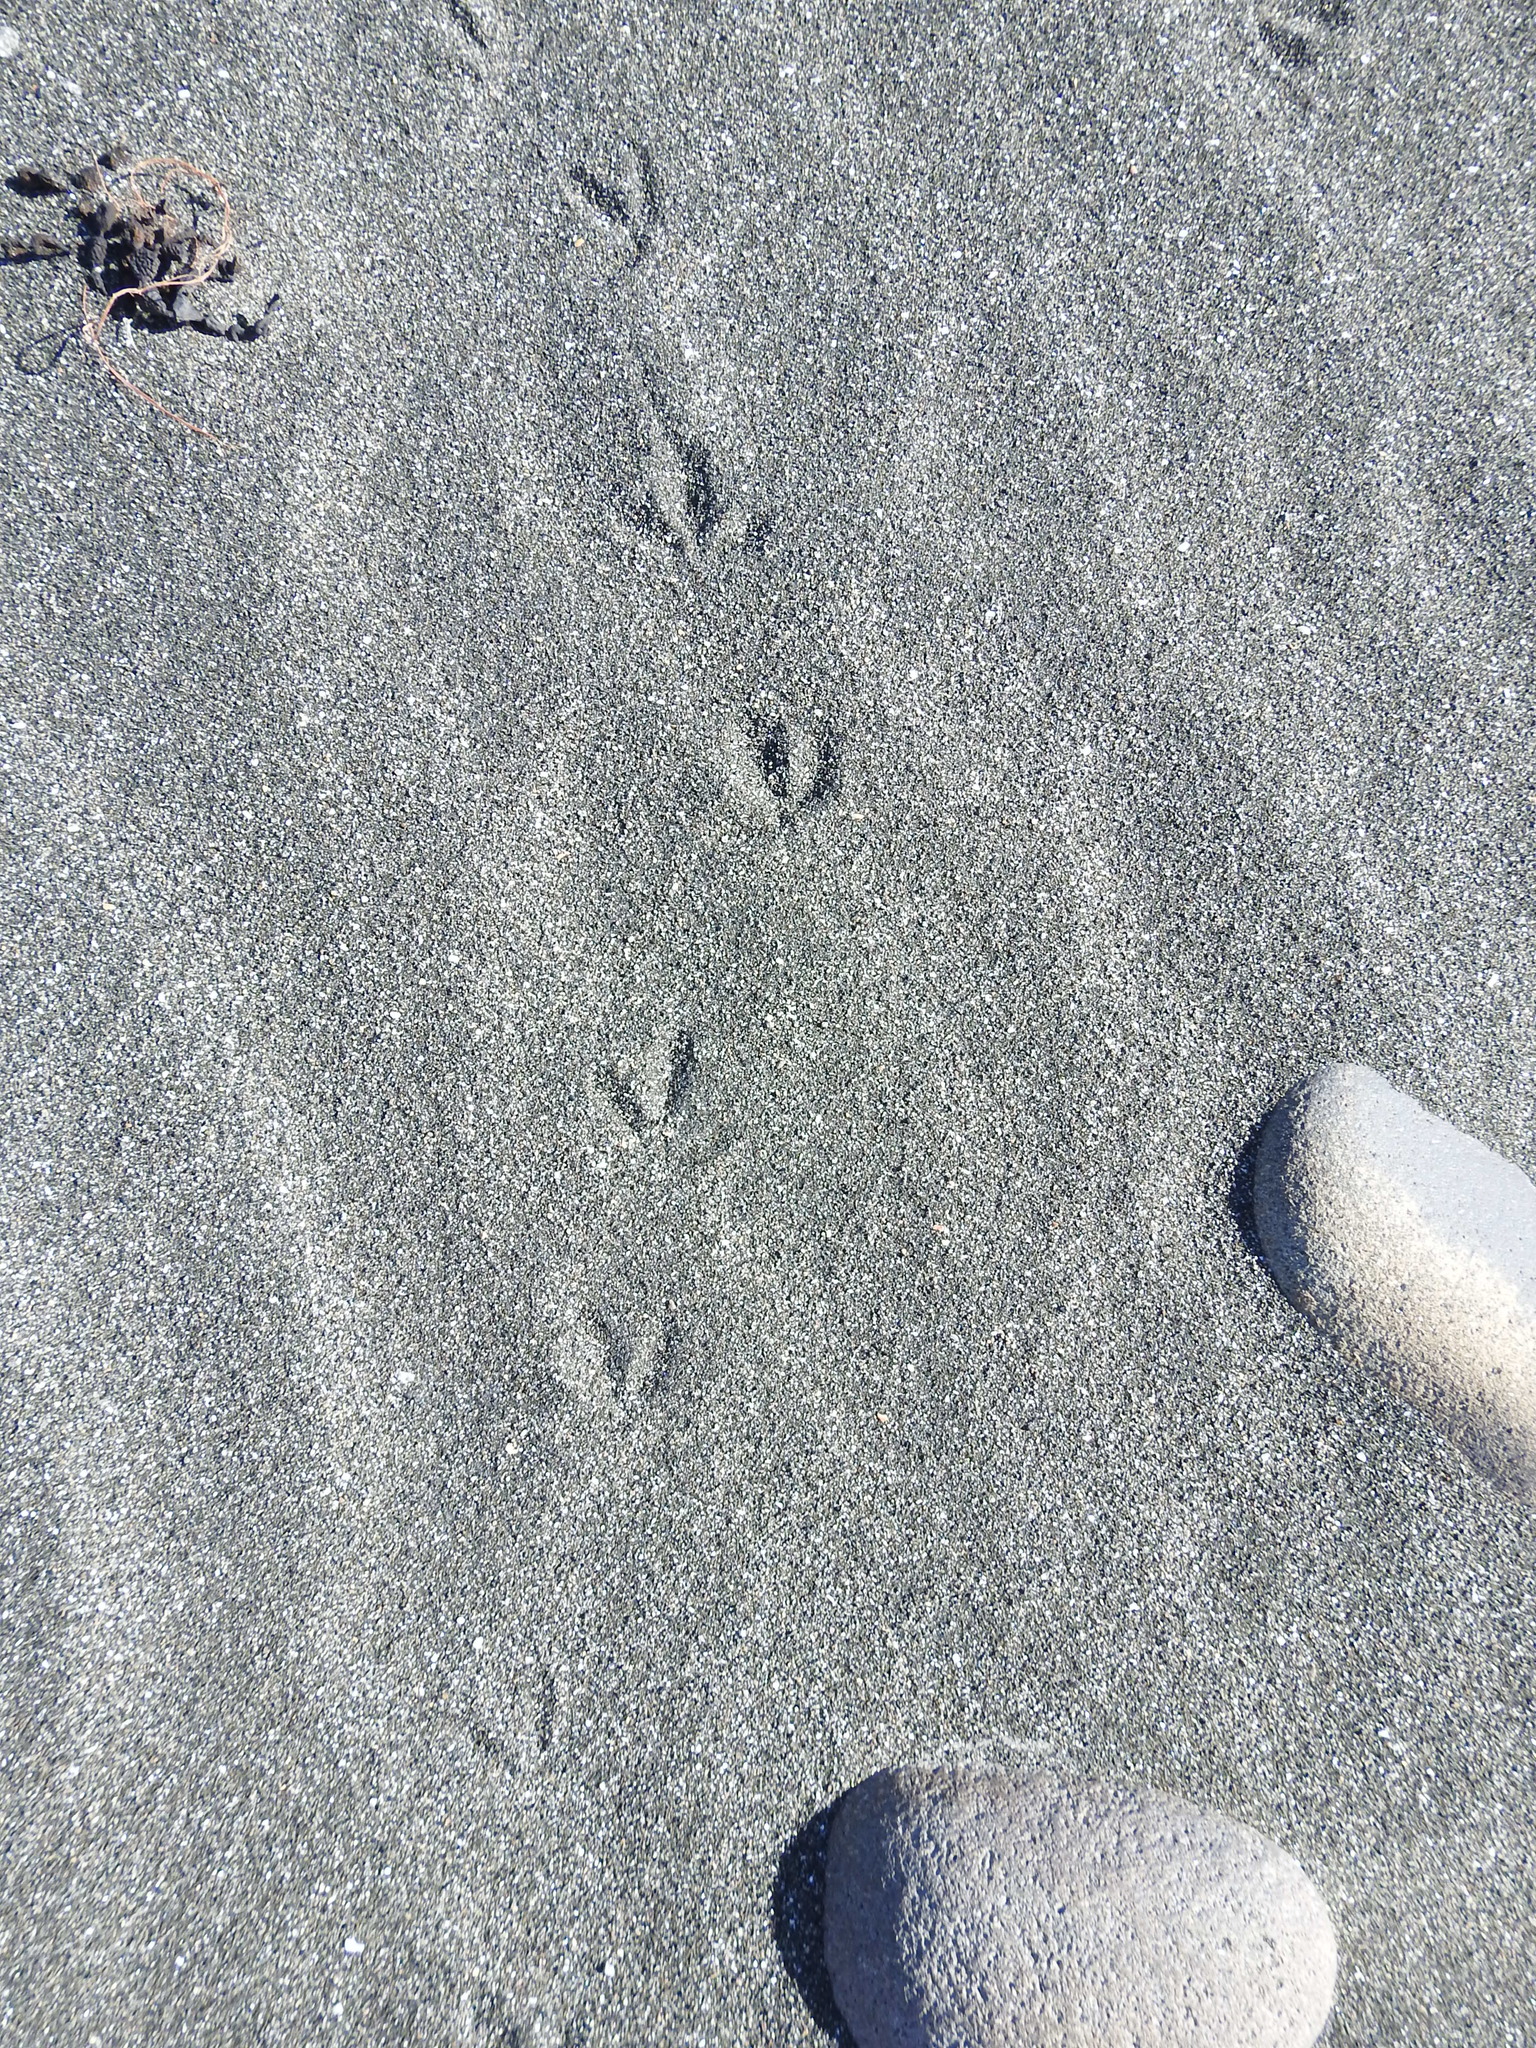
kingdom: Animalia
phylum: Chordata
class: Aves
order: Charadriiformes
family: Charadriidae
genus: Anarhynchus
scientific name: Anarhynchus
